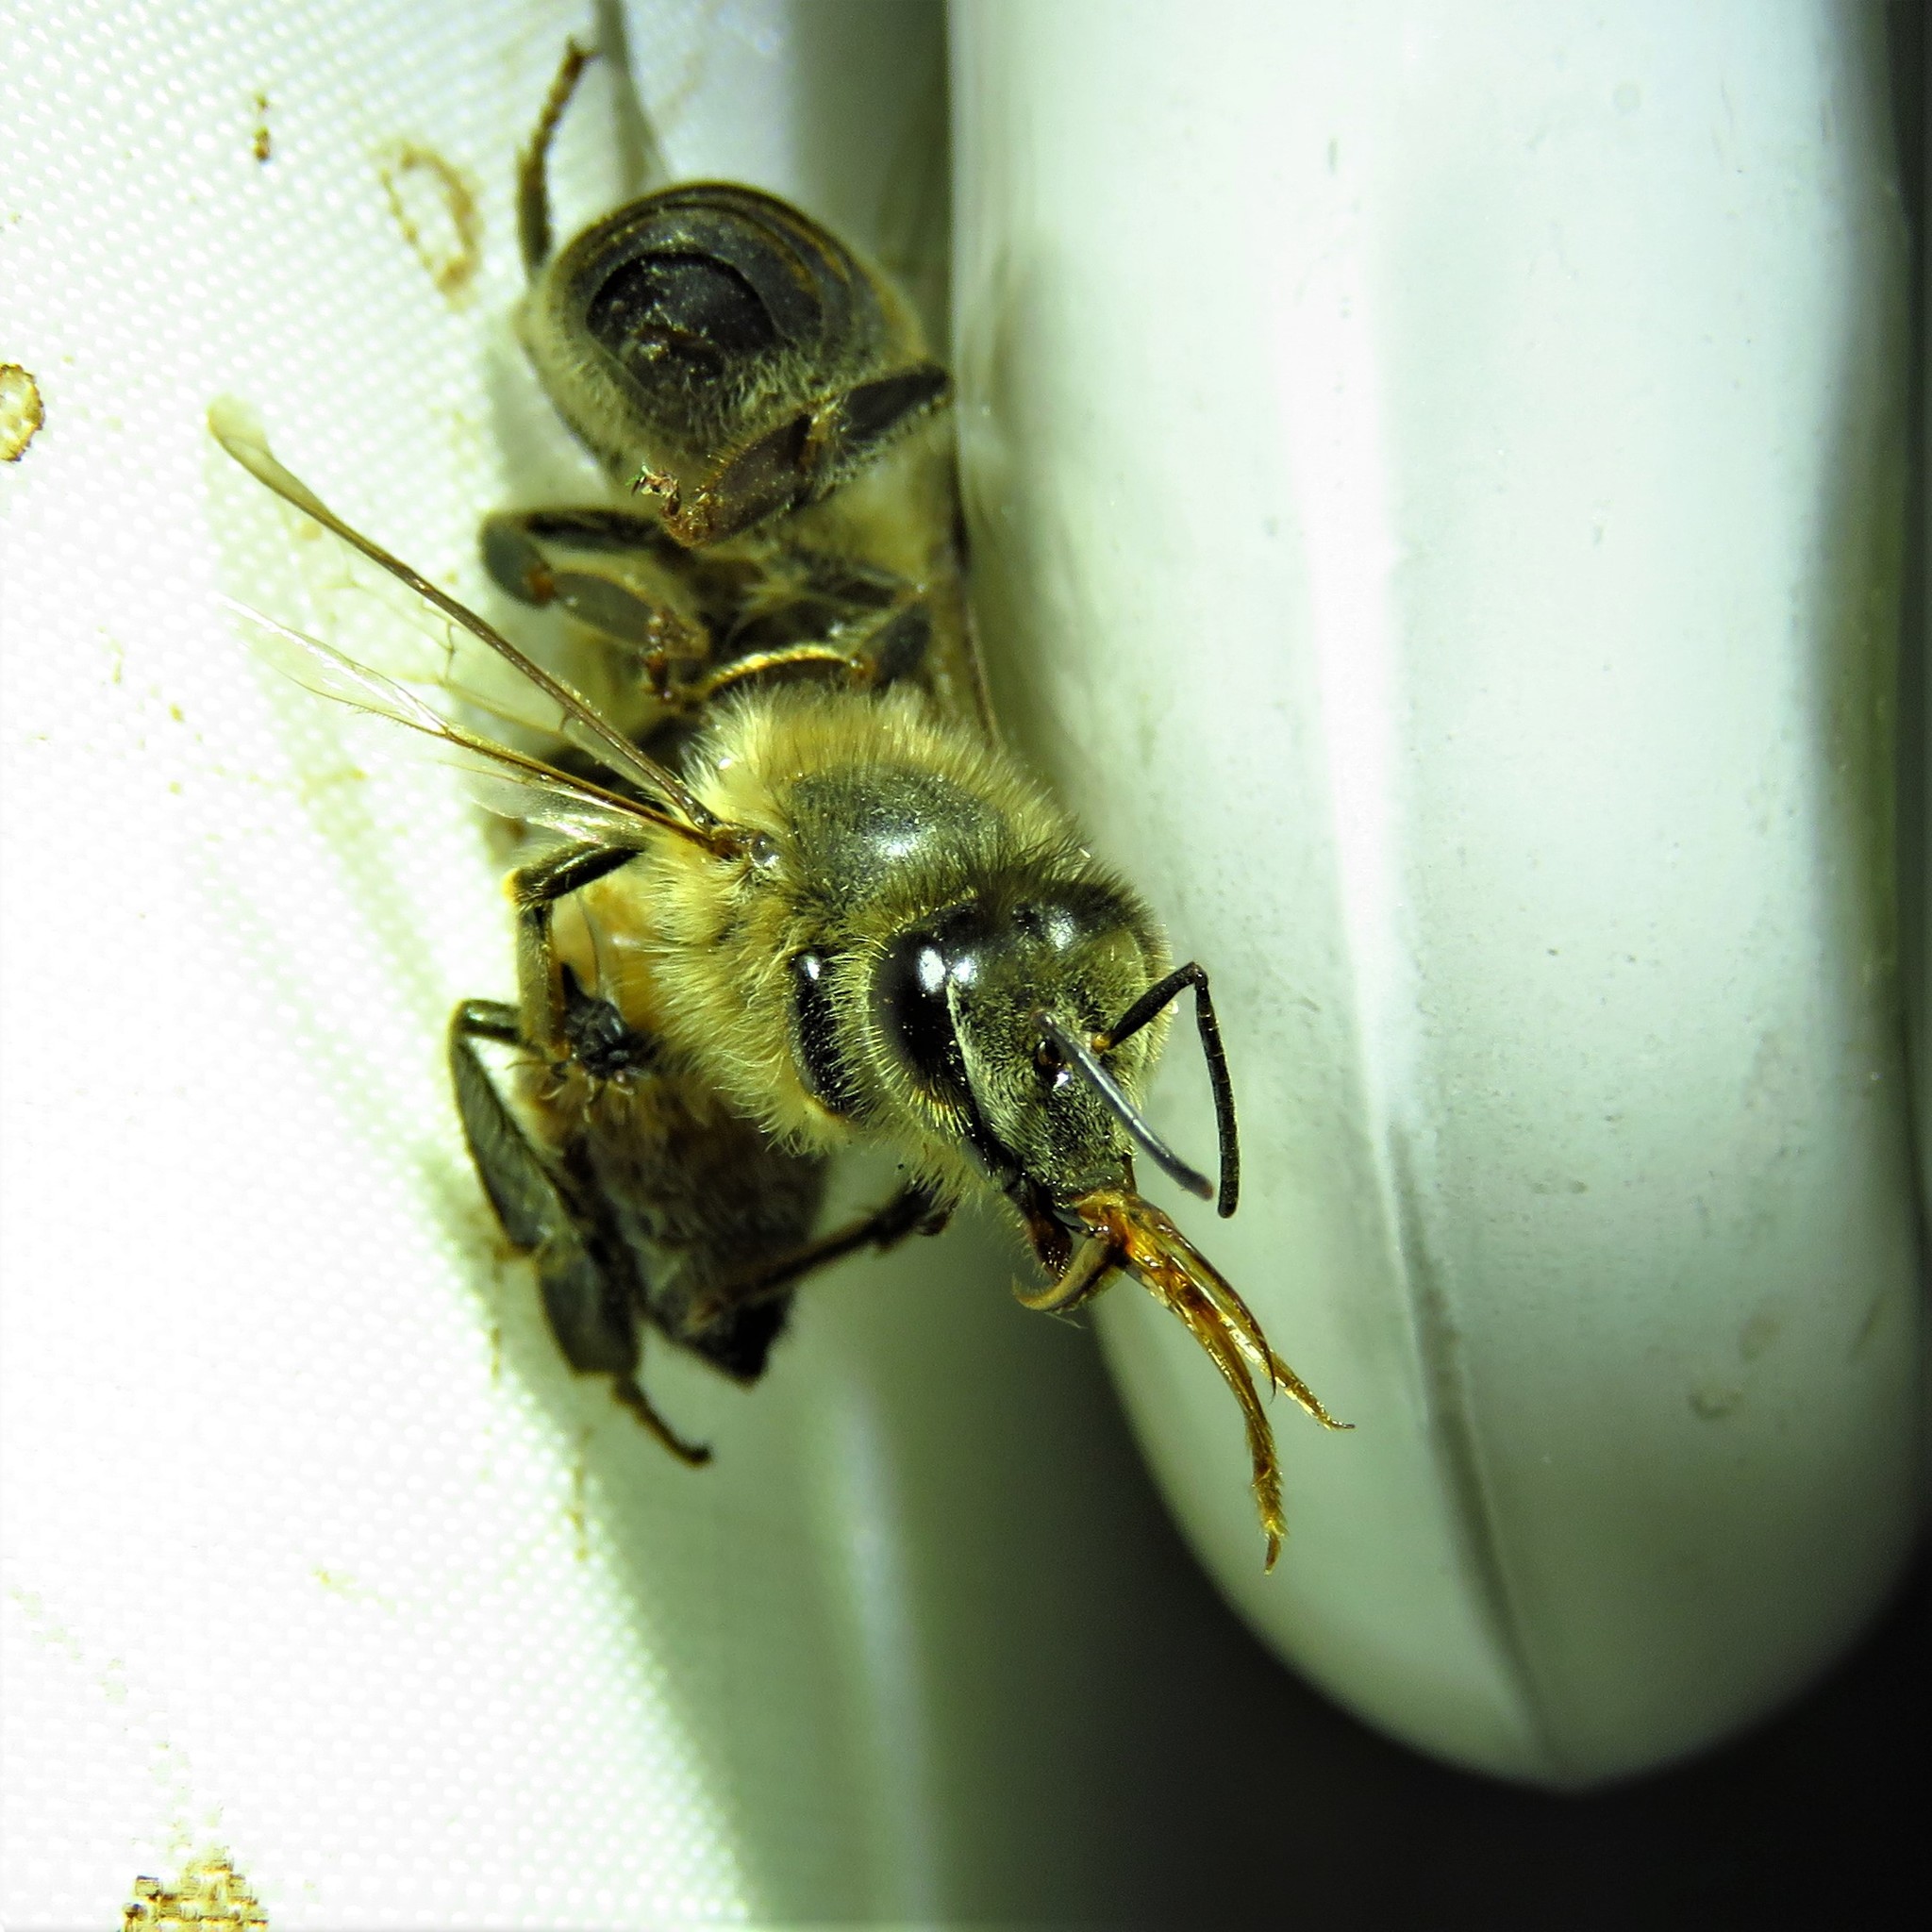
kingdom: Animalia
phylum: Arthropoda
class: Insecta
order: Hymenoptera
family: Apidae
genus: Apis
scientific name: Apis mellifera
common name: Honey bee
